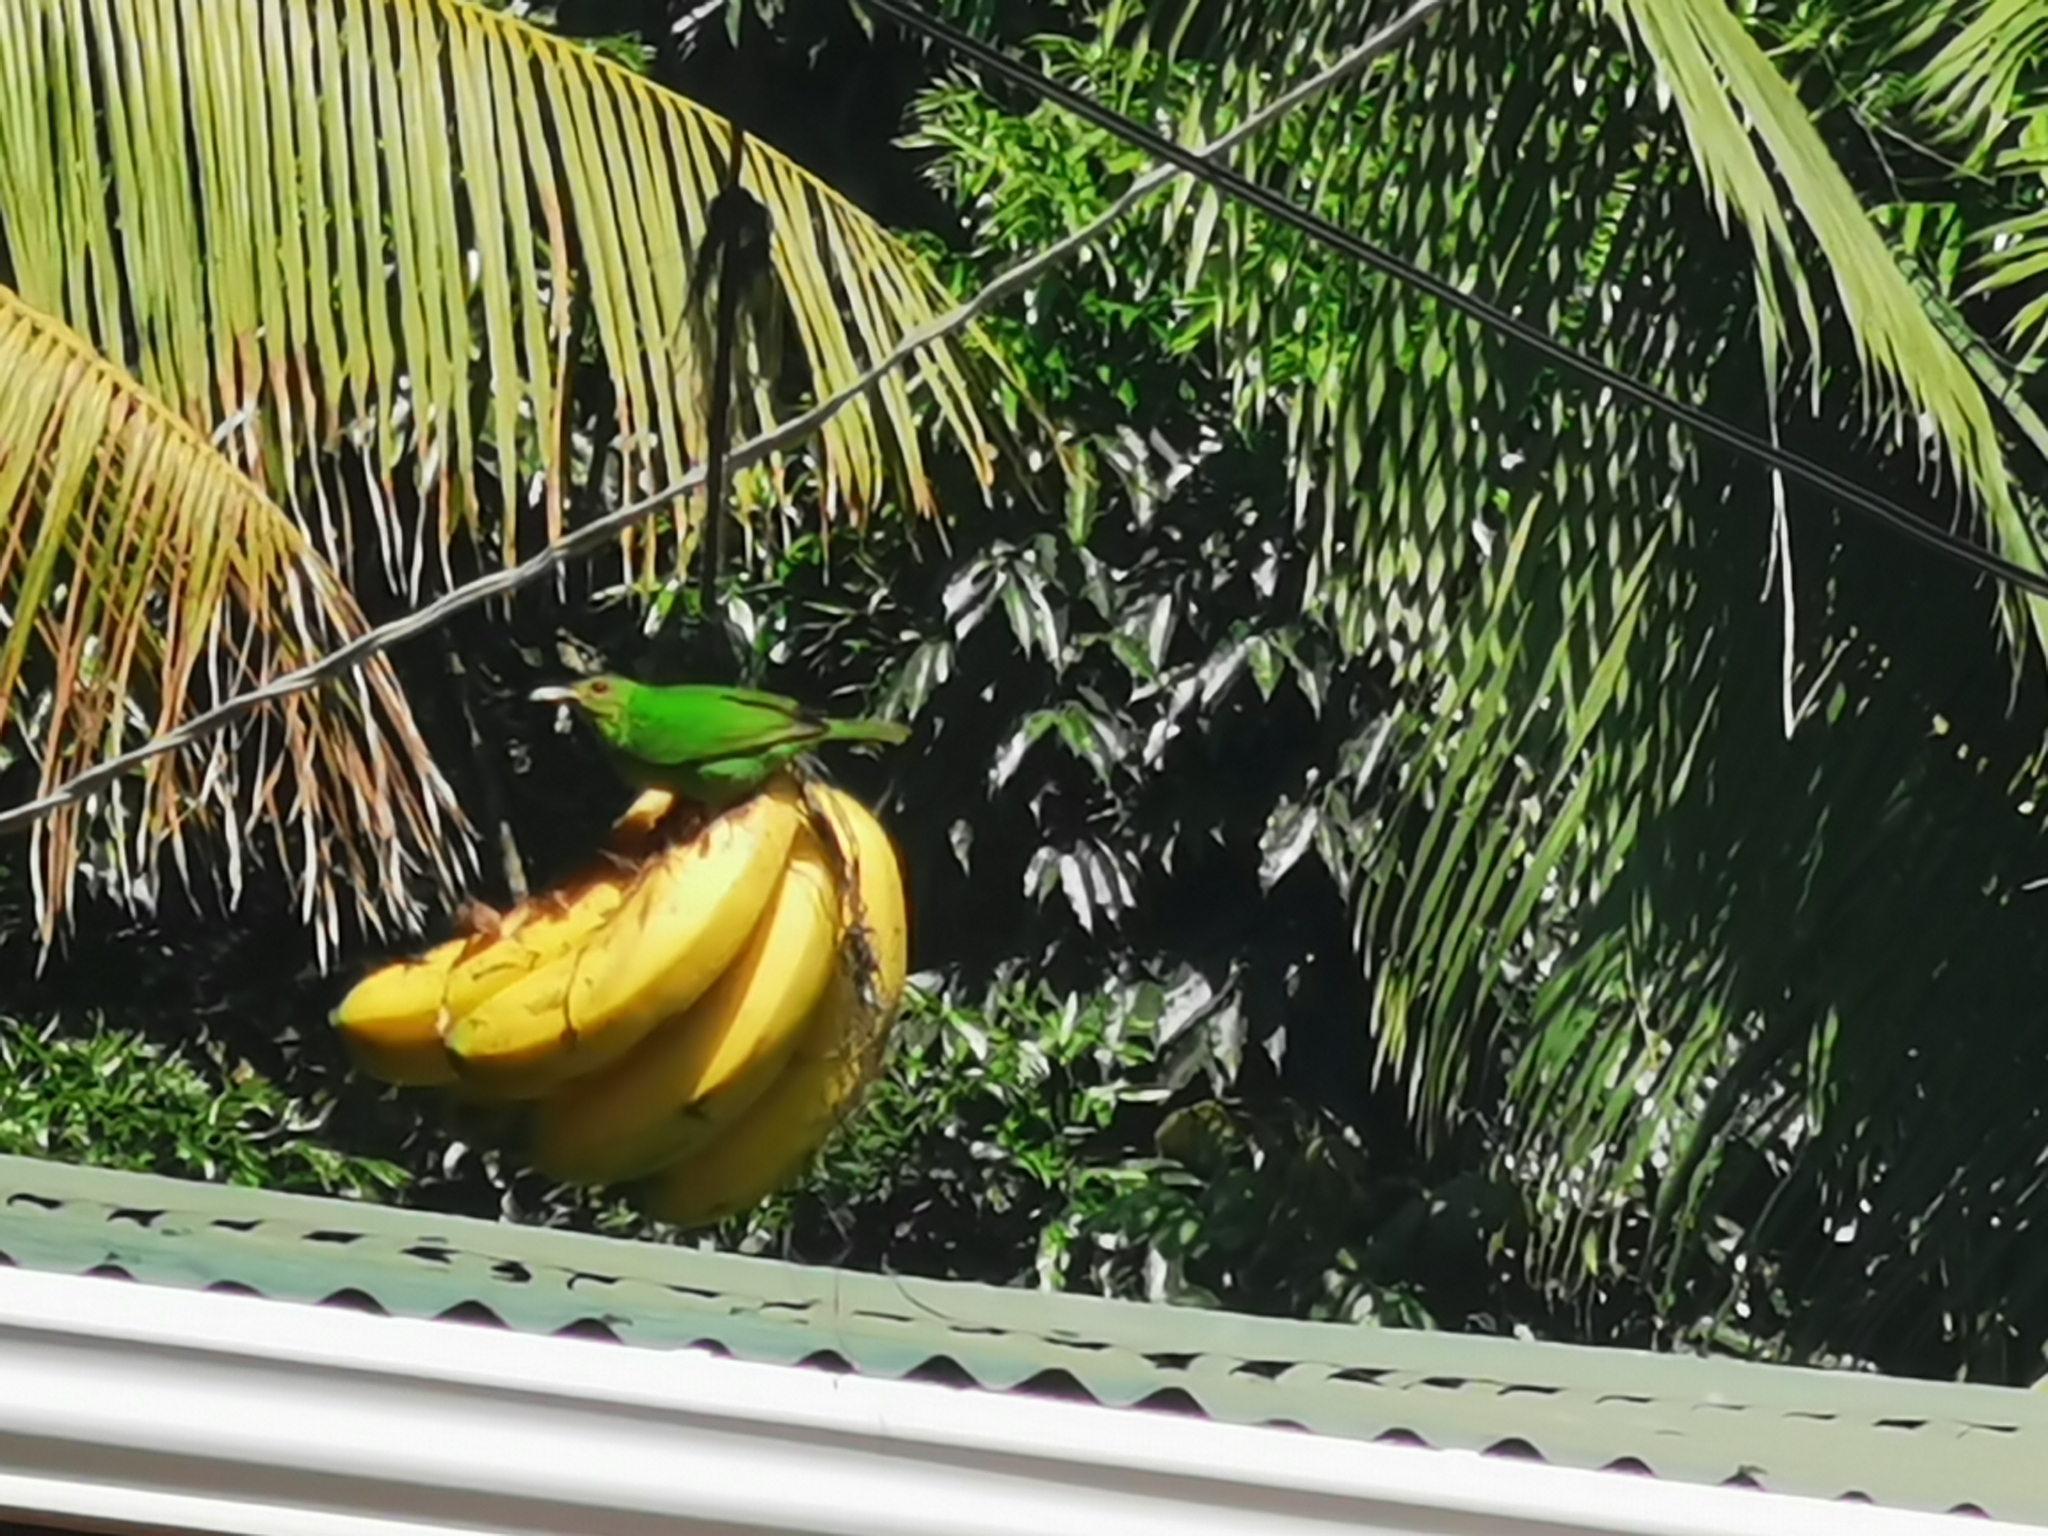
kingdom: Animalia
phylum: Chordata
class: Aves
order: Passeriformes
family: Thraupidae
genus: Chlorophanes
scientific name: Chlorophanes spiza
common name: Green honeycreeper
